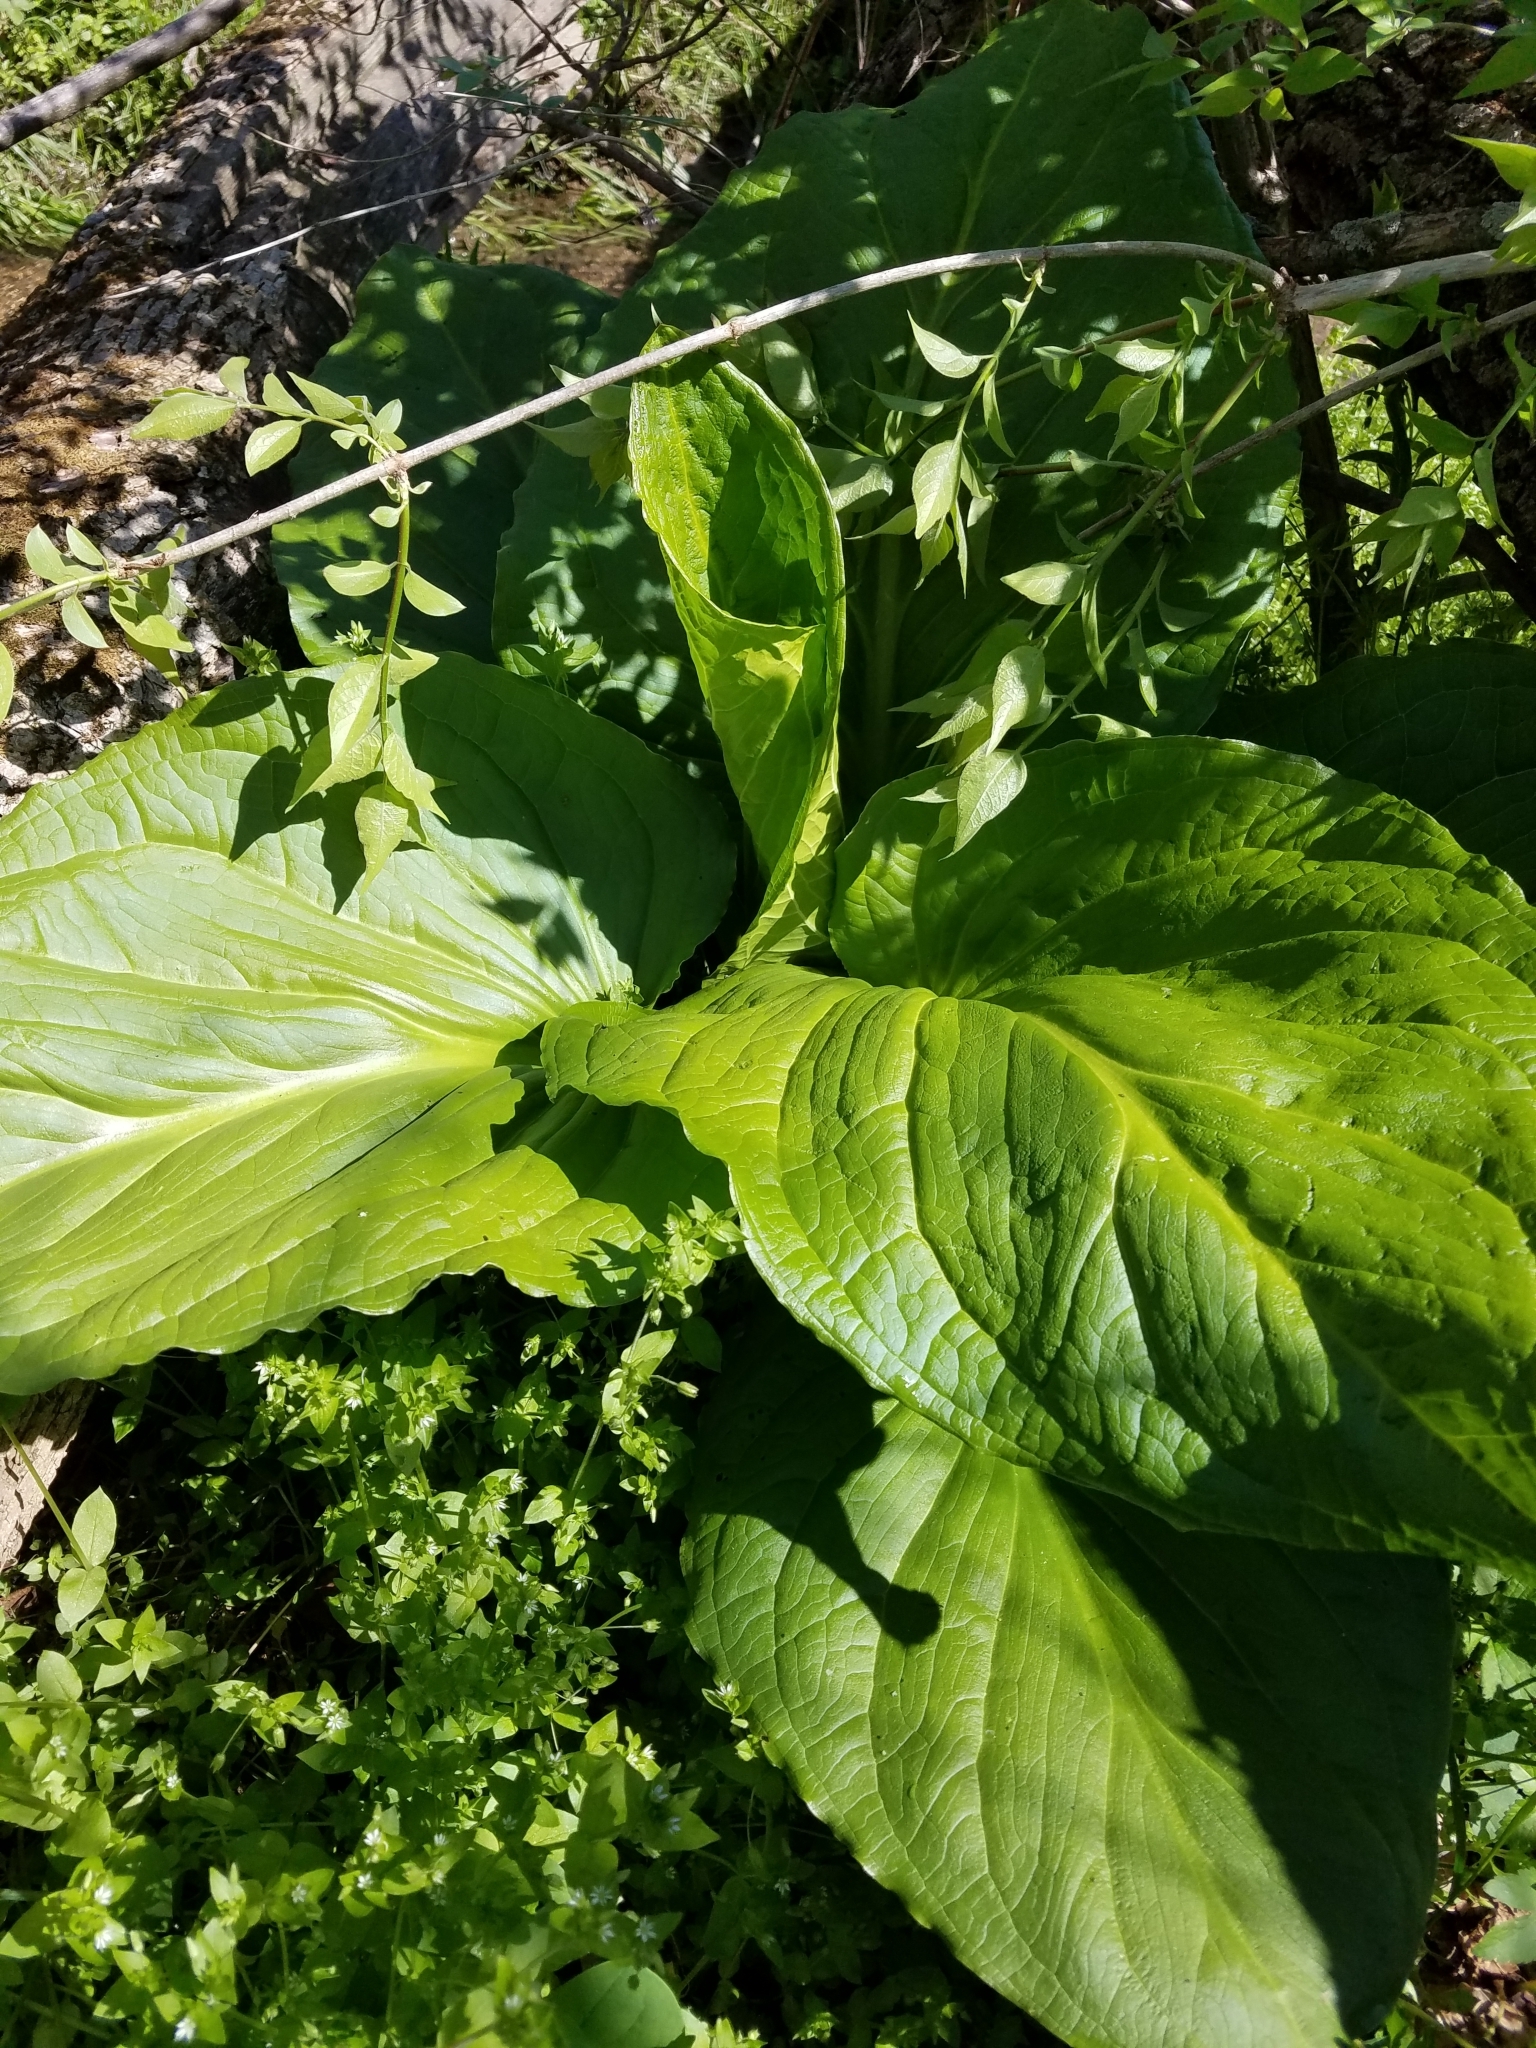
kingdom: Plantae
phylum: Tracheophyta
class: Liliopsida
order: Alismatales
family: Araceae
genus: Symplocarpus
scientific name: Symplocarpus foetidus
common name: Eastern skunk cabbage
